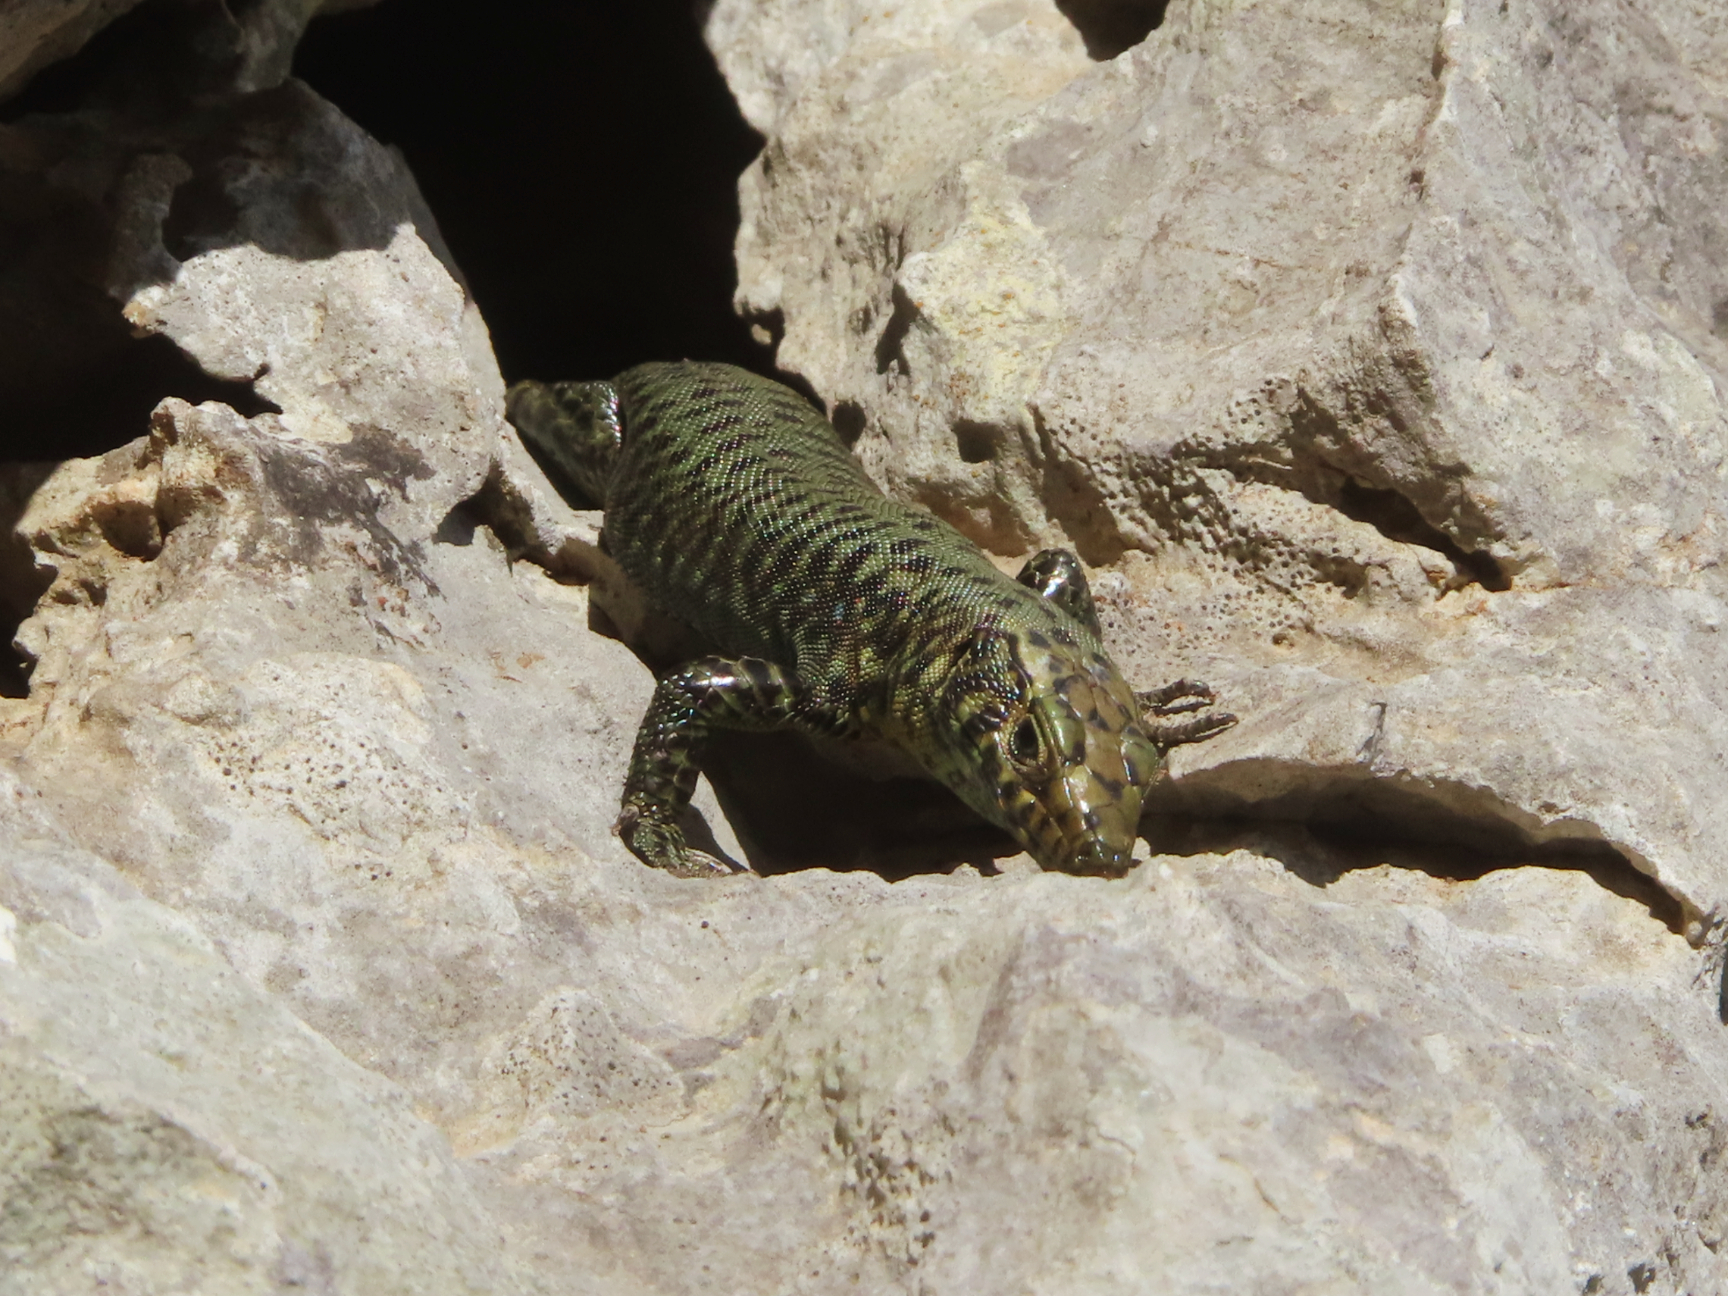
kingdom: Animalia
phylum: Chordata
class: Squamata
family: Lacertidae
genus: Hellenolacerta
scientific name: Hellenolacerta graeca
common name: Greek rock lizard
